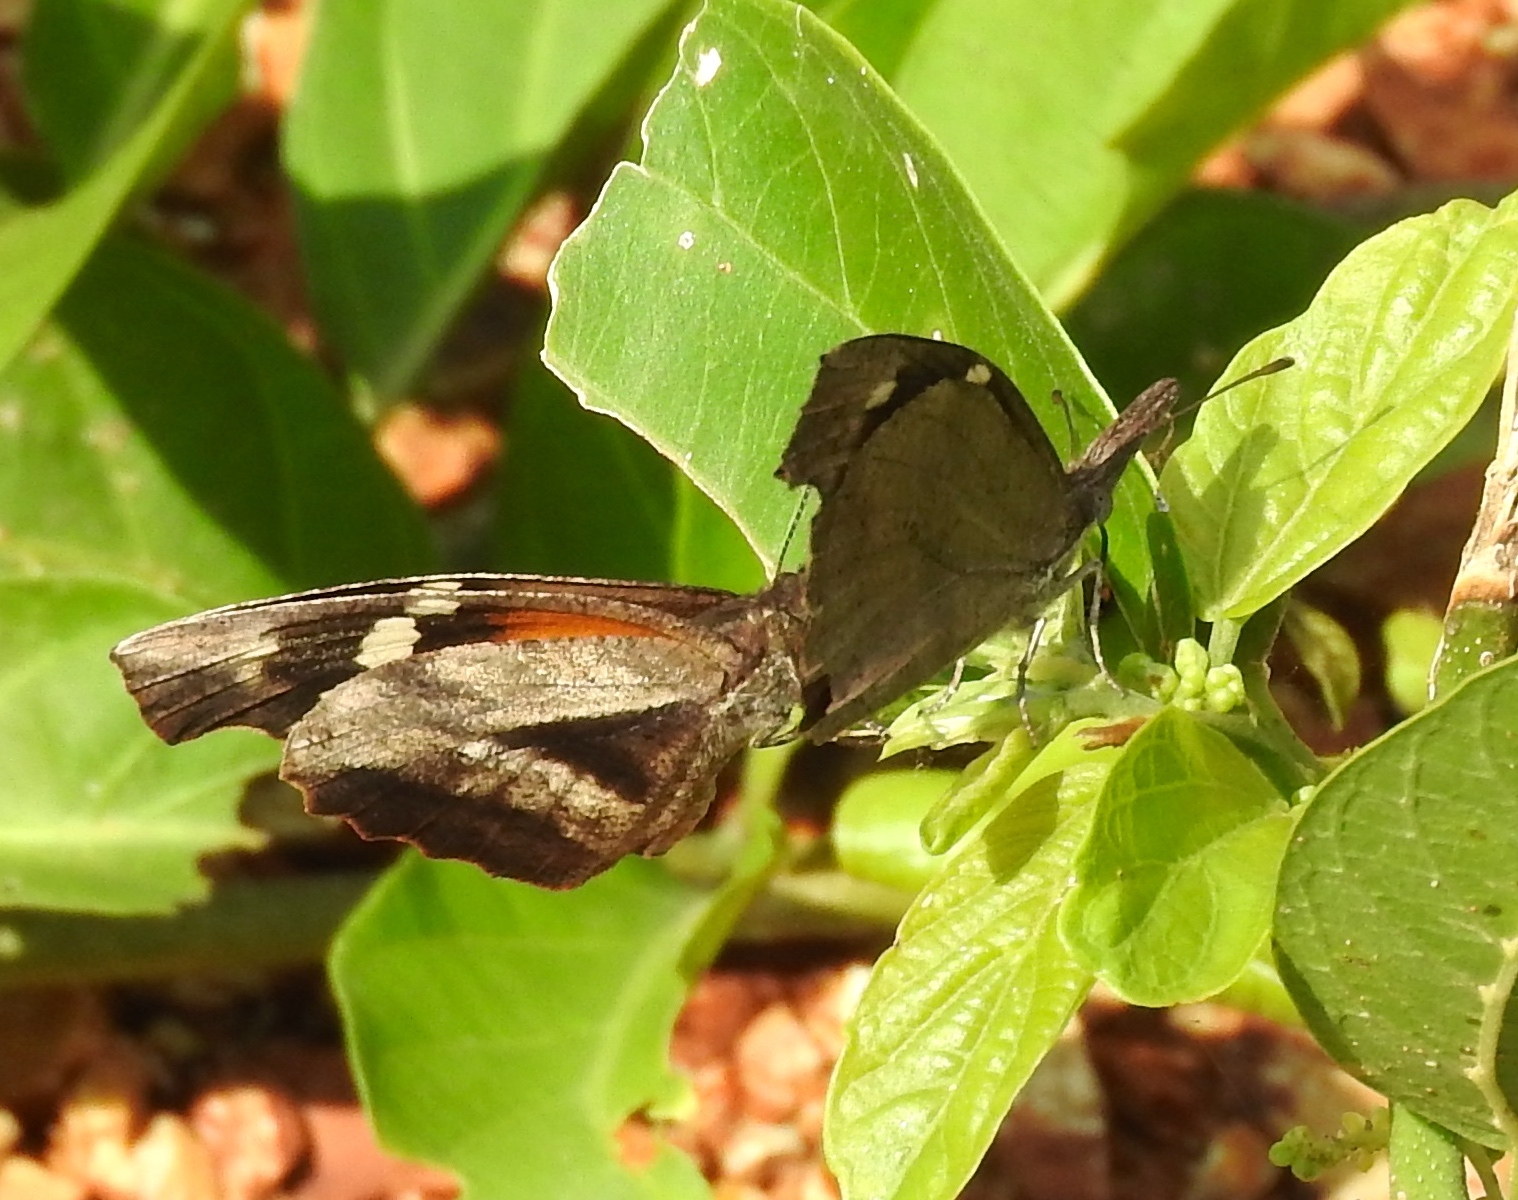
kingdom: Animalia
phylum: Arthropoda
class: Insecta
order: Lepidoptera
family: Nymphalidae
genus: Libytheana
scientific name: Libytheana carinenta
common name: American snout
